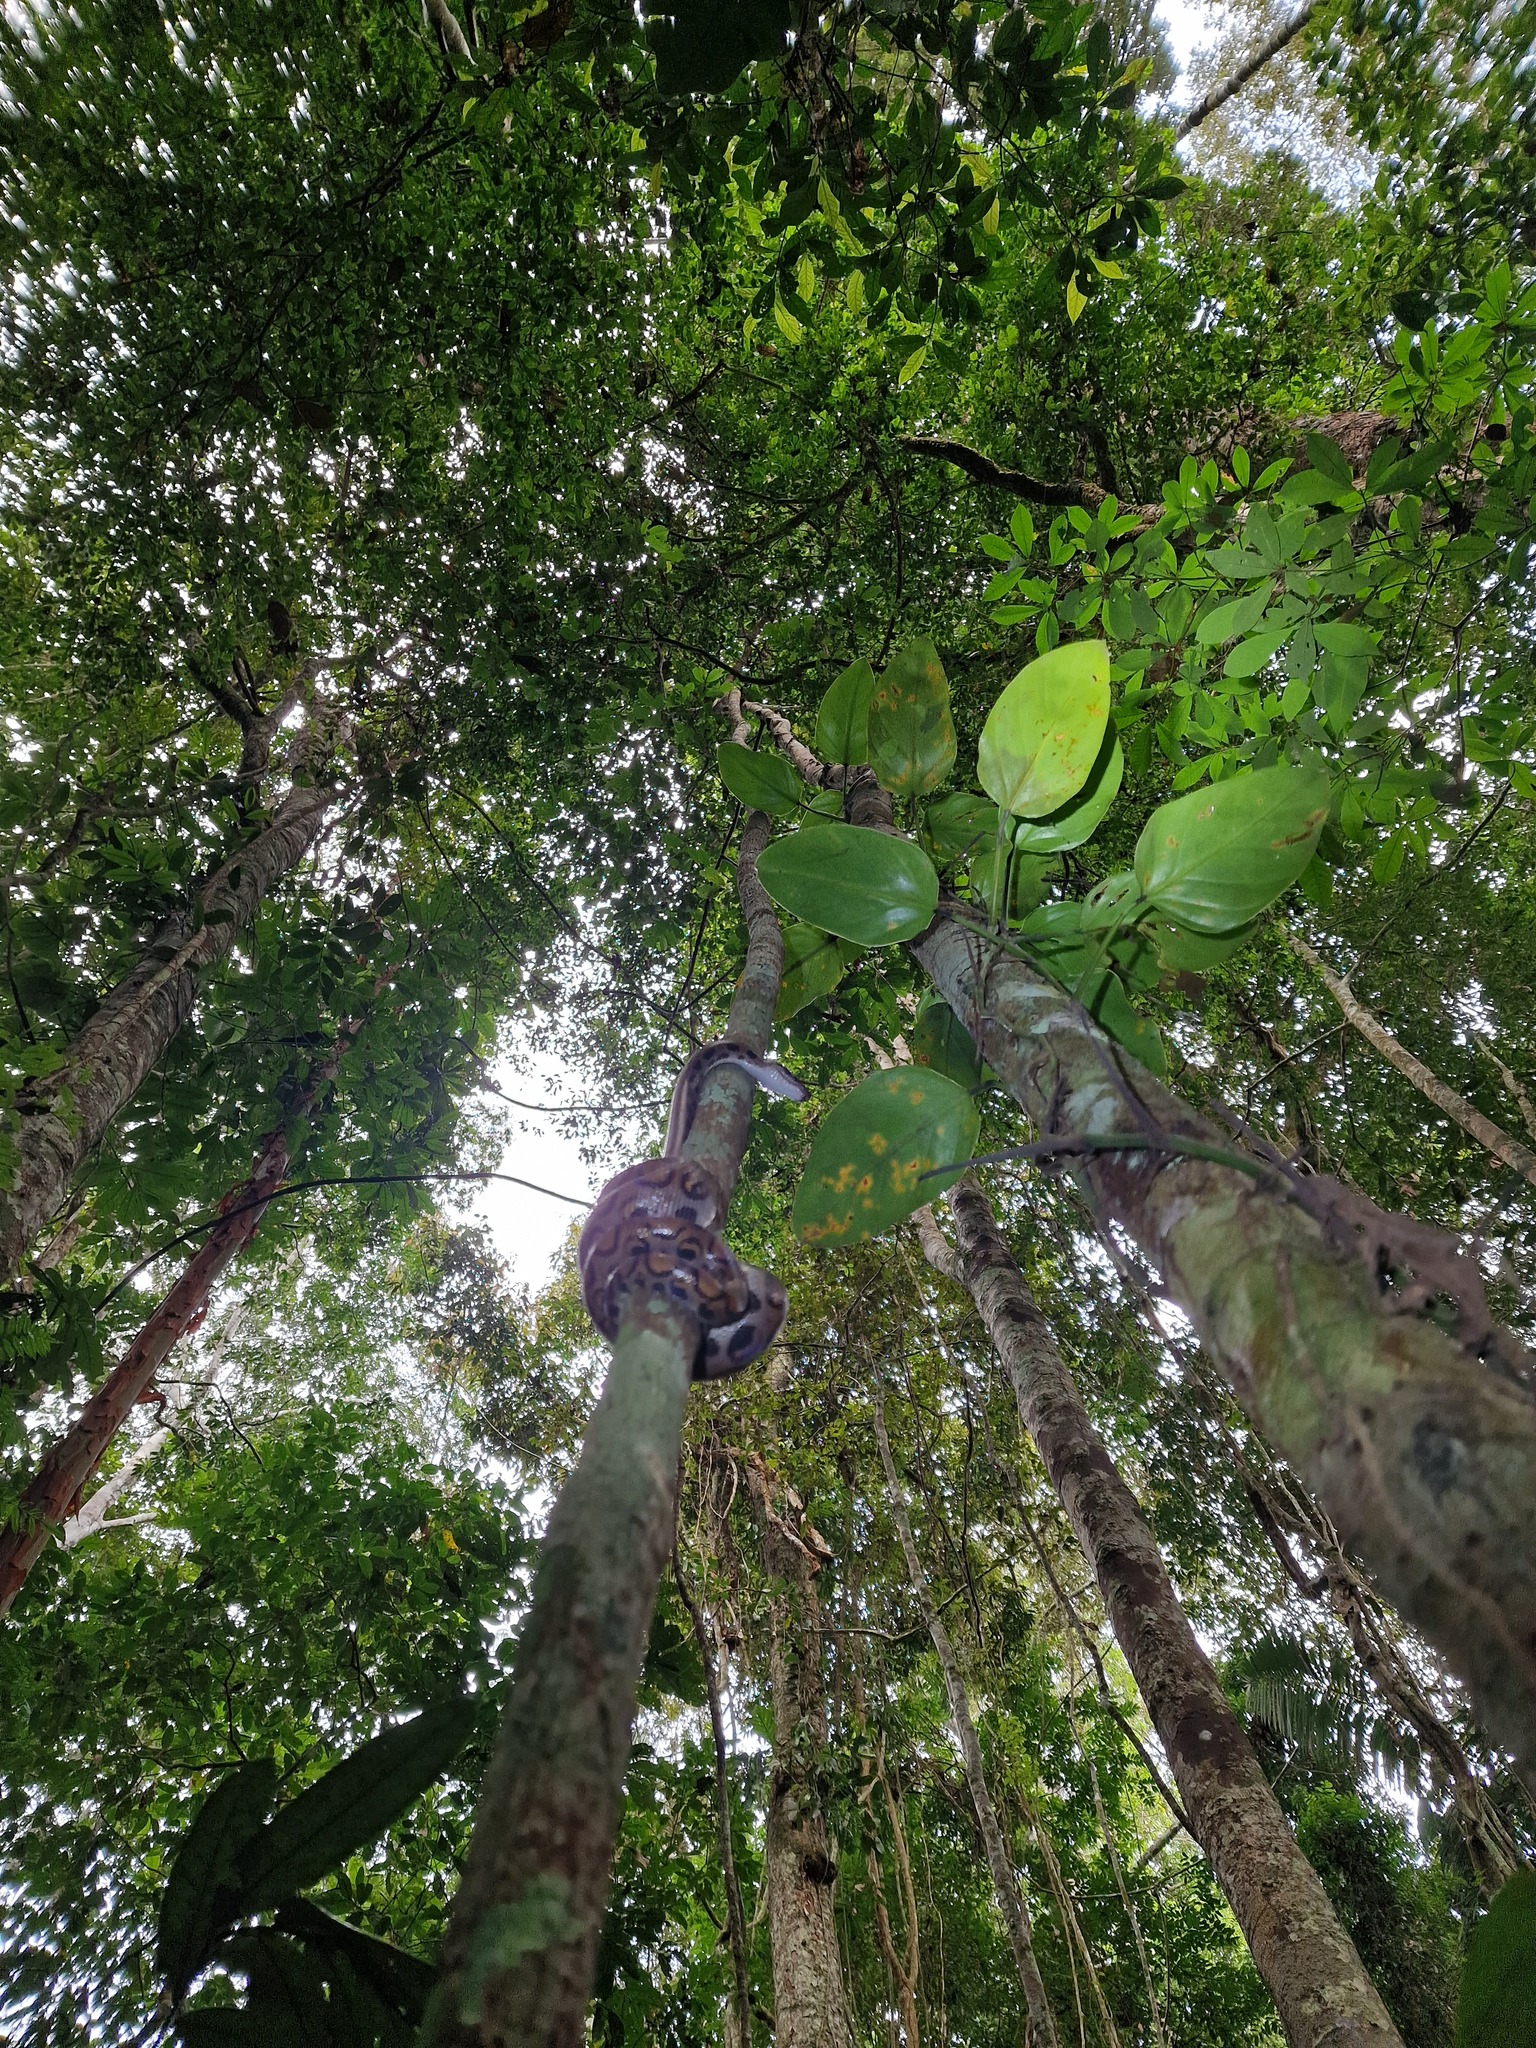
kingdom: Animalia
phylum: Chordata
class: Squamata
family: Boidae
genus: Epicrates
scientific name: Epicrates cenchria
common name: Rainbow boa
